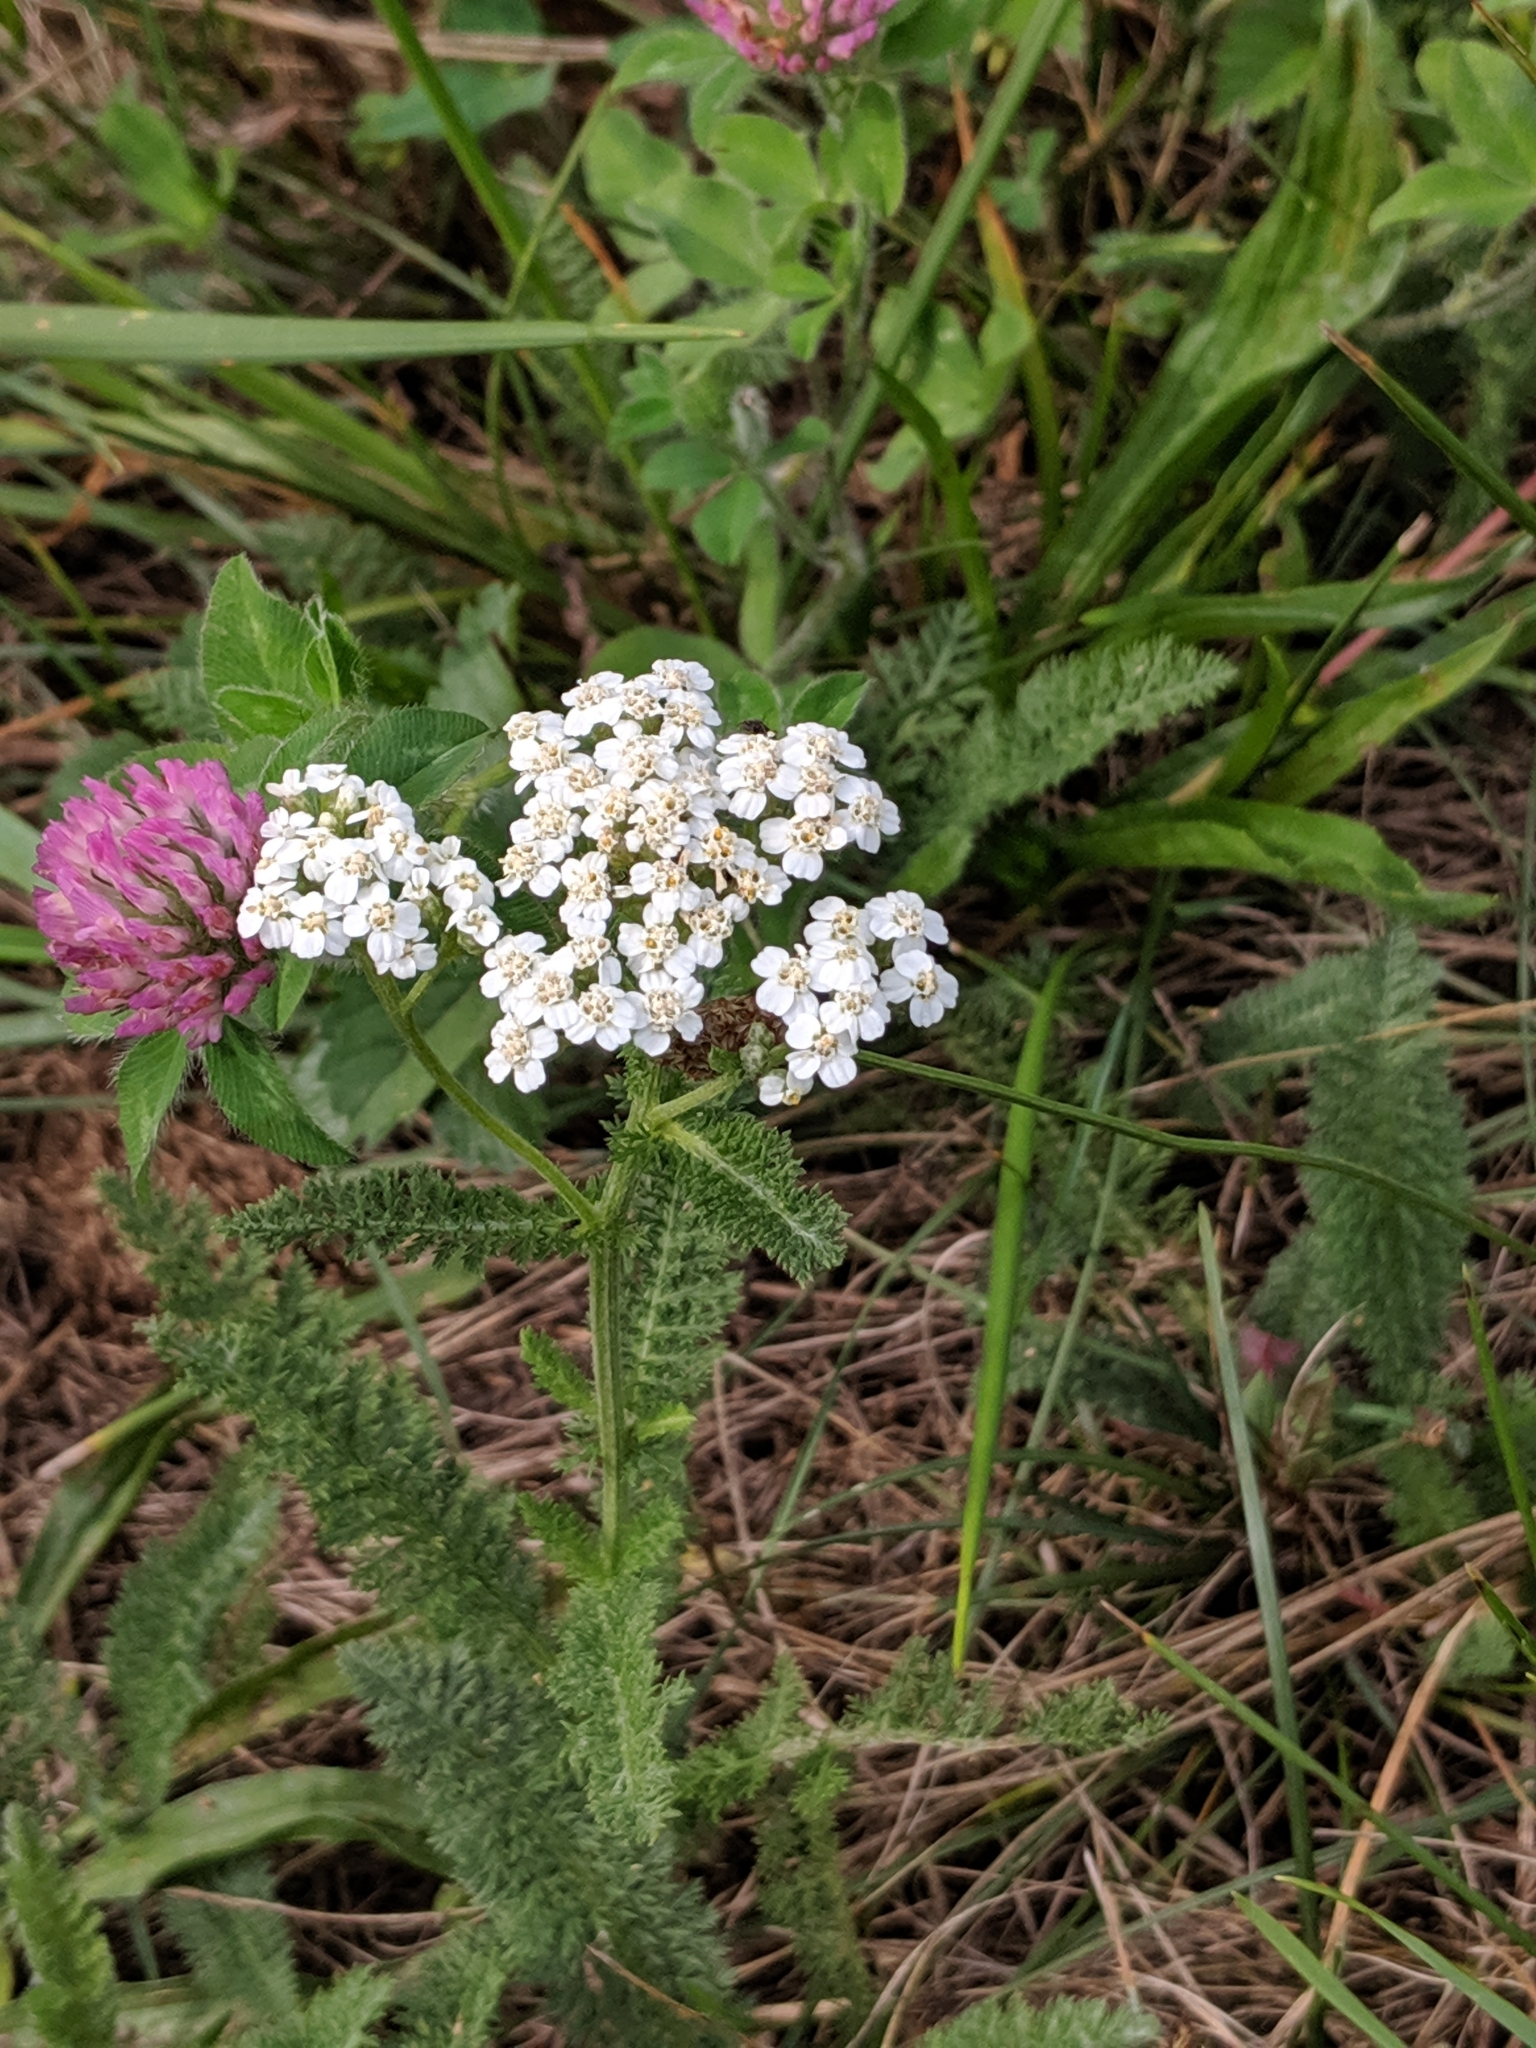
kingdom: Plantae
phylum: Tracheophyta
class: Magnoliopsida
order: Asterales
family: Asteraceae
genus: Achillea
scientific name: Achillea millefolium
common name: Yarrow
